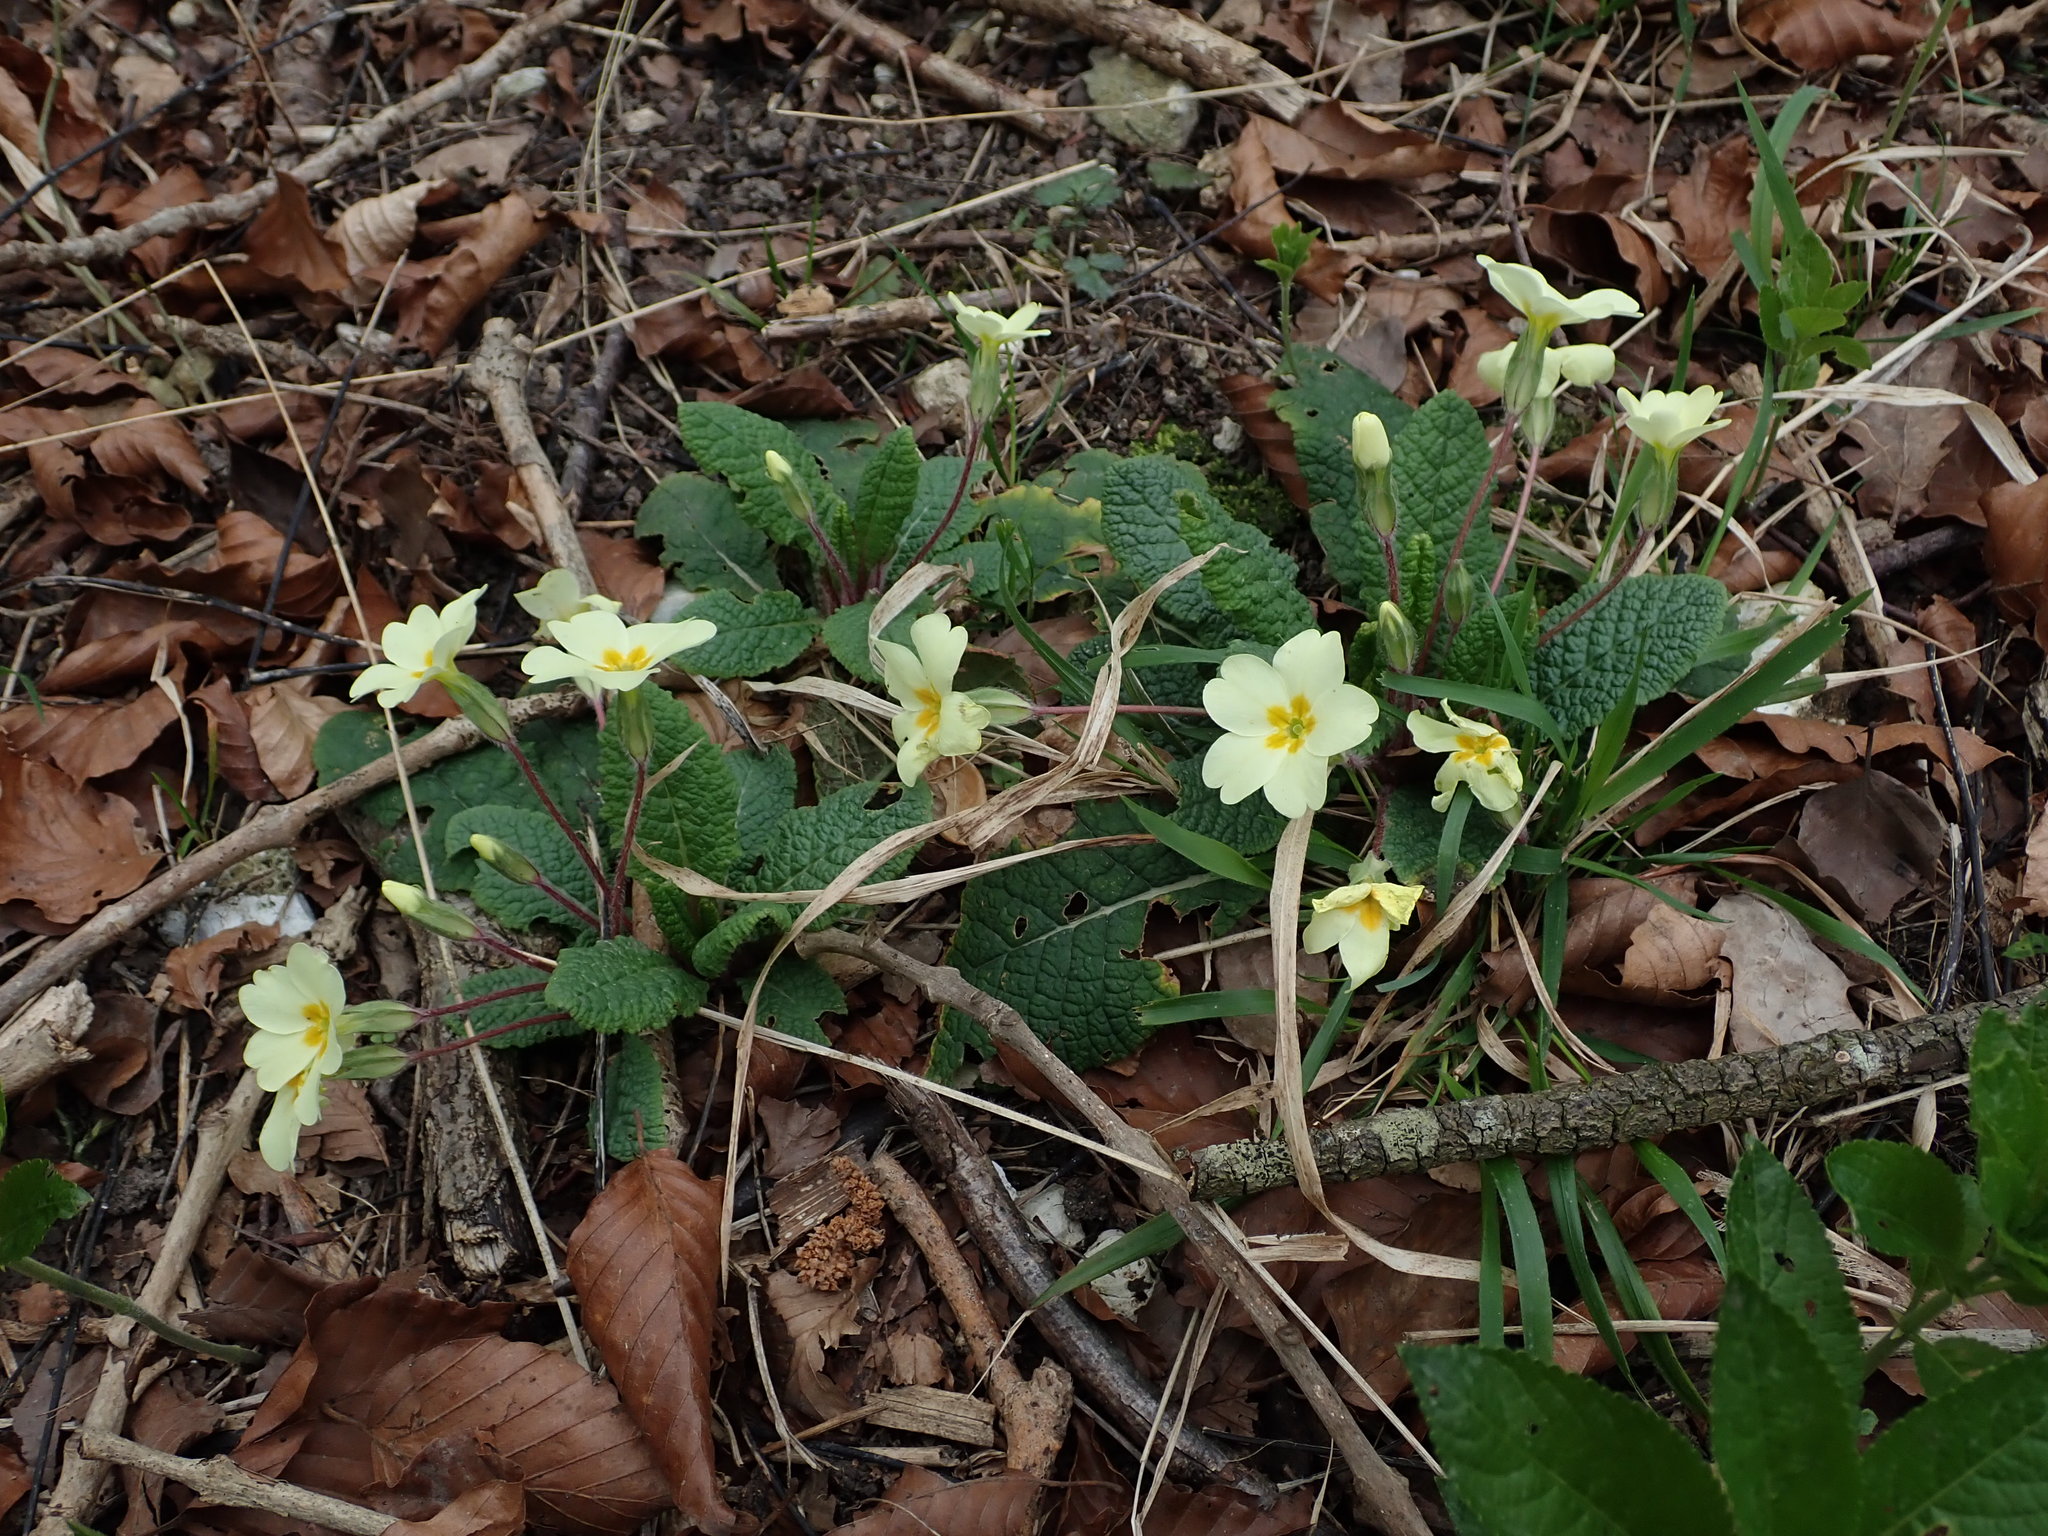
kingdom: Plantae
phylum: Tracheophyta
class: Magnoliopsida
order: Ericales
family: Primulaceae
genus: Primula
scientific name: Primula vulgaris
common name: Primrose
